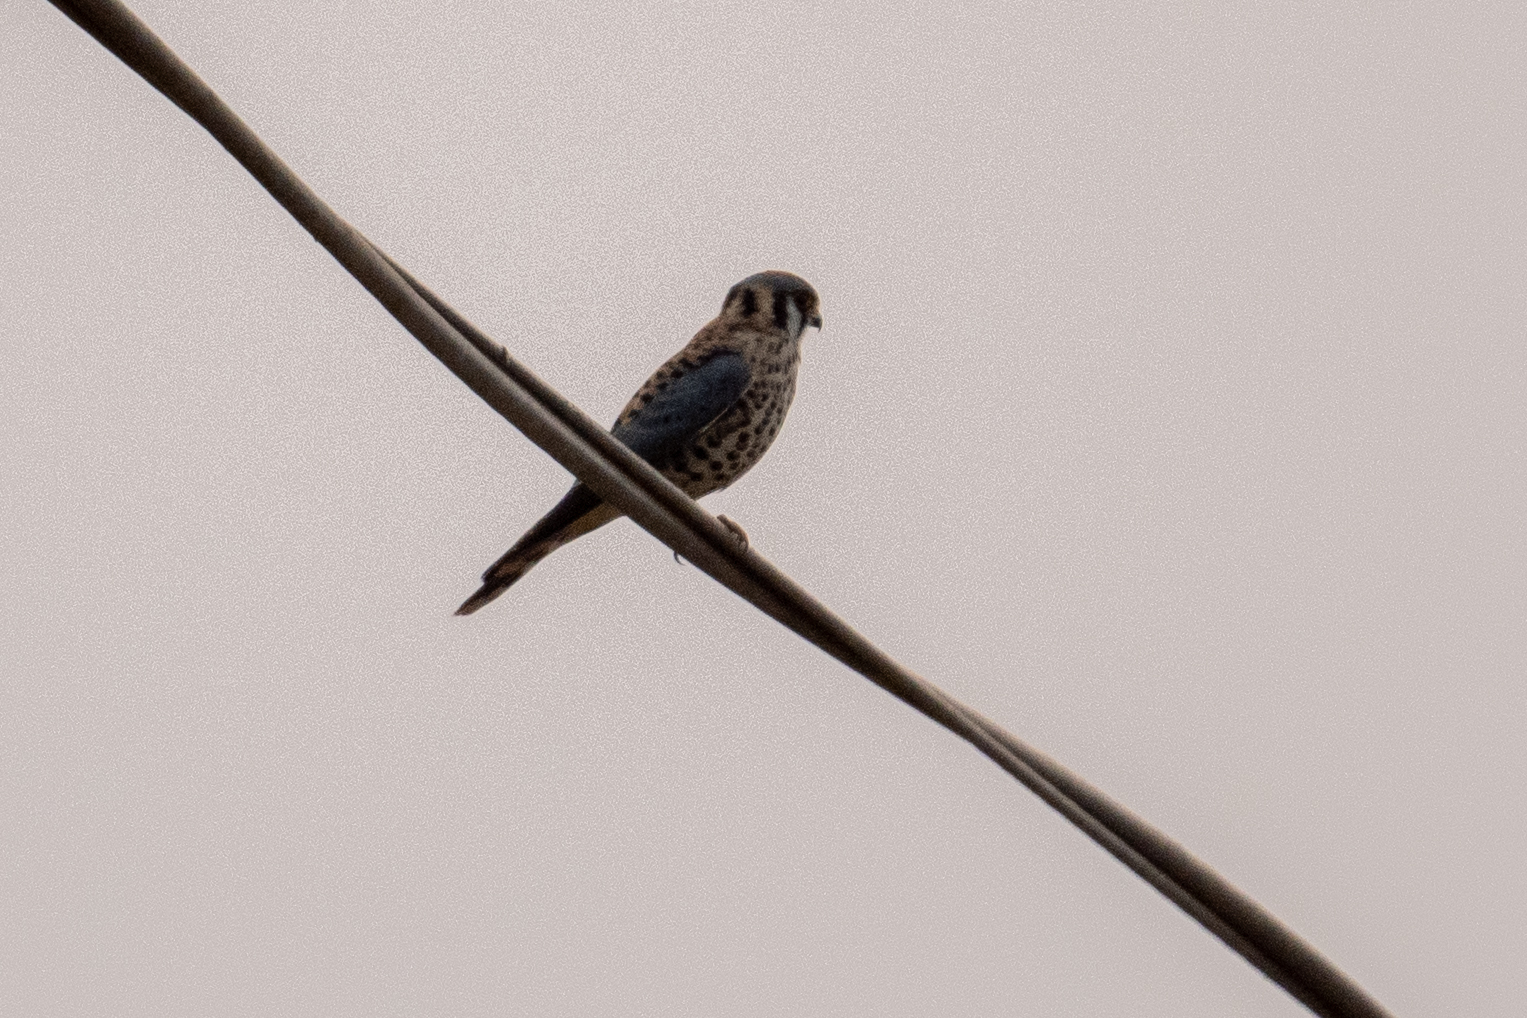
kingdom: Animalia
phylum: Chordata
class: Aves
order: Falconiformes
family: Falconidae
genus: Falco
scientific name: Falco sparverius
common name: American kestrel
